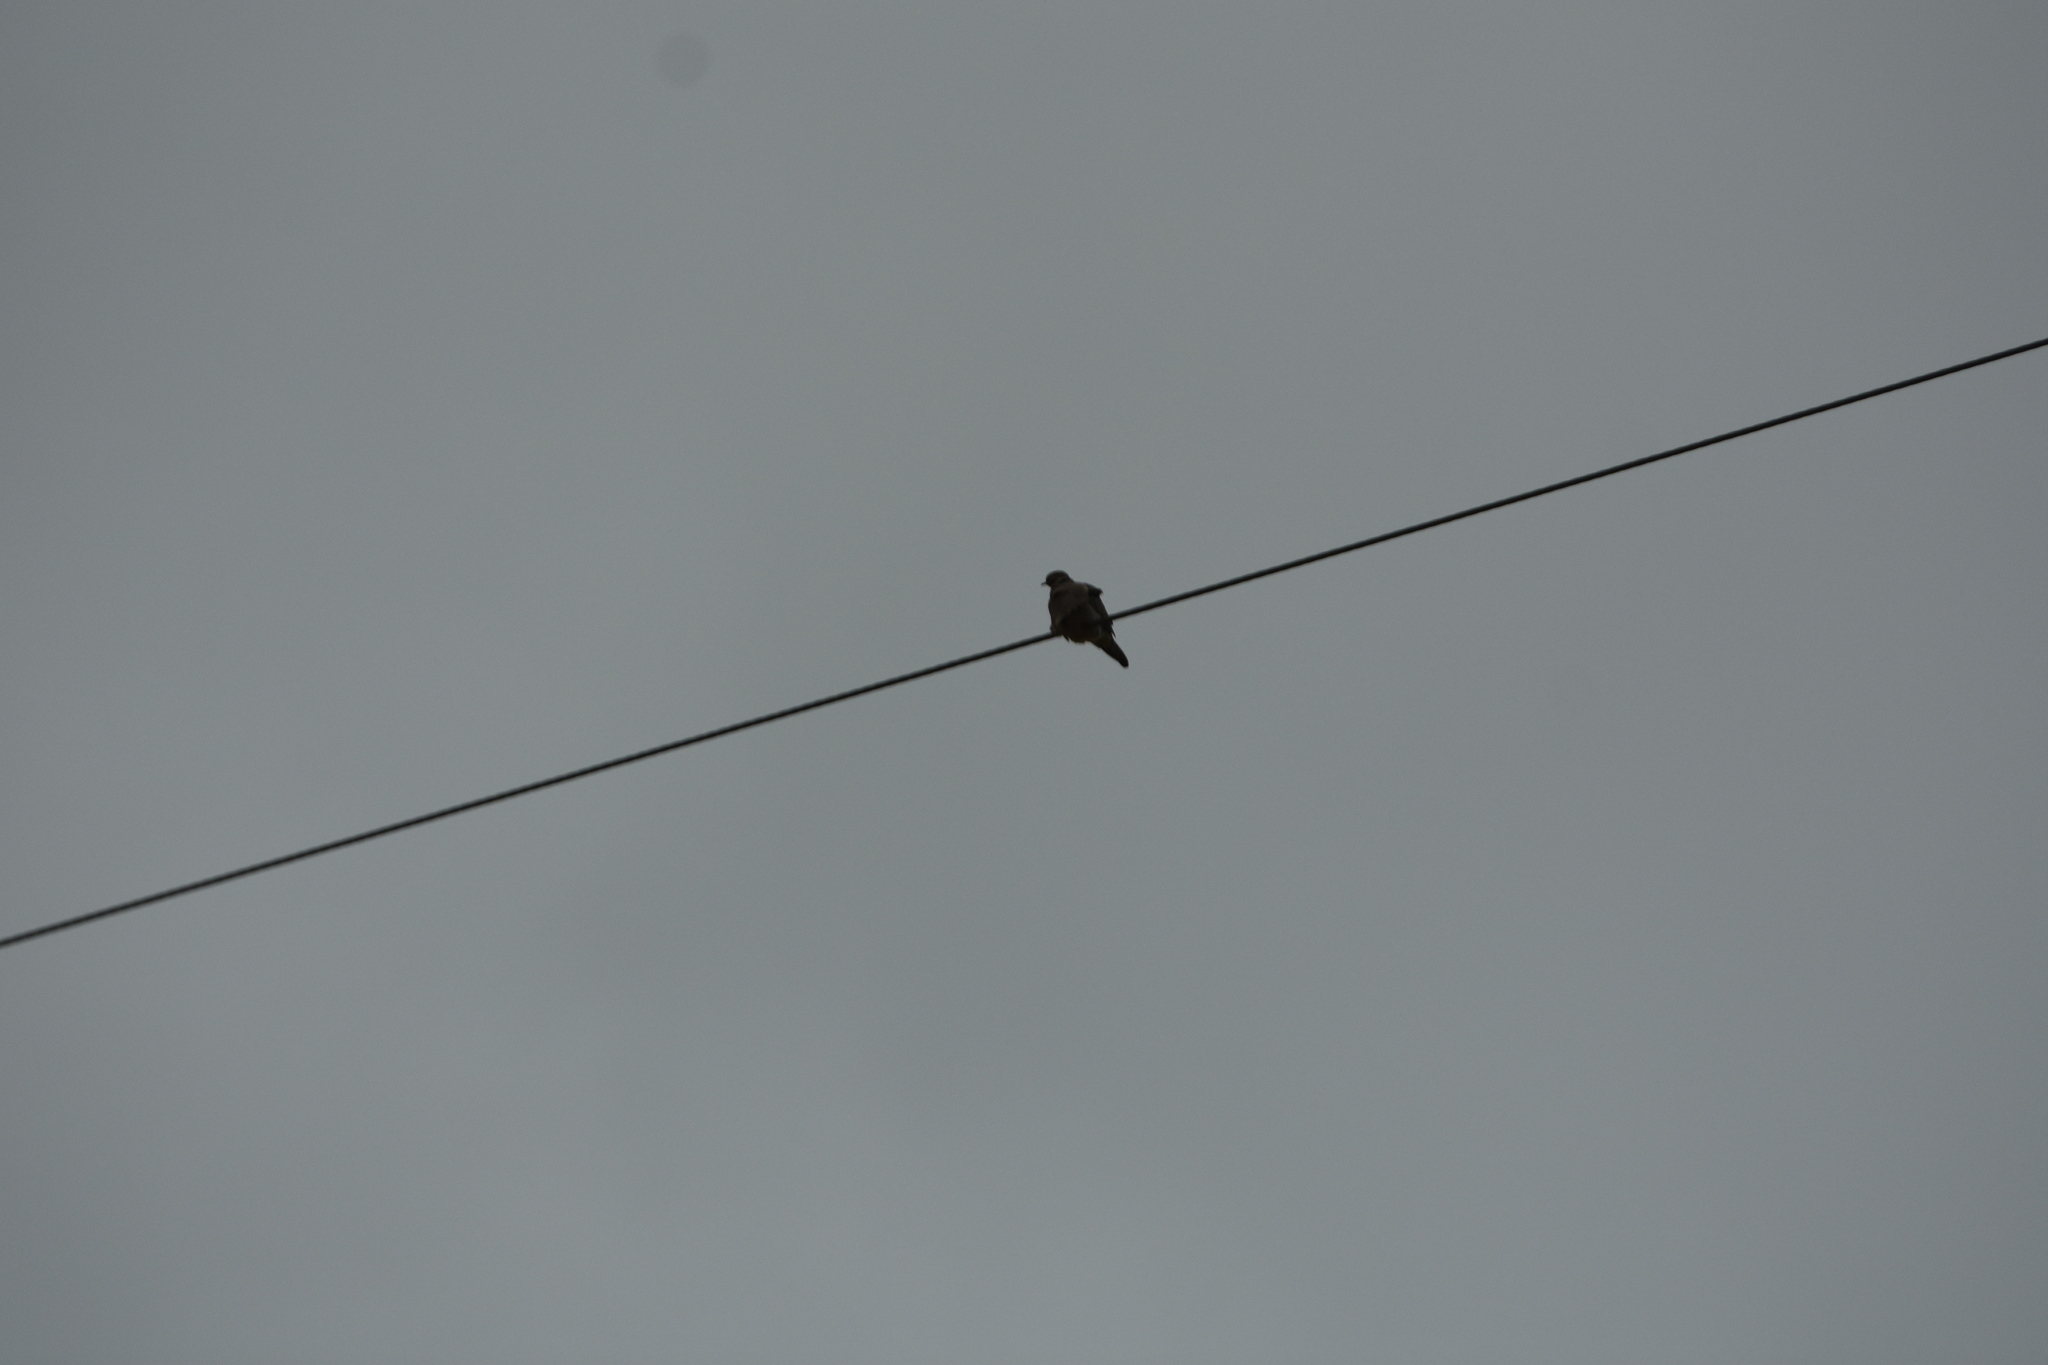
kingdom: Animalia
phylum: Chordata
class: Aves
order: Columbiformes
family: Columbidae
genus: Zenaida
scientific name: Zenaida macroura
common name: Mourning dove
